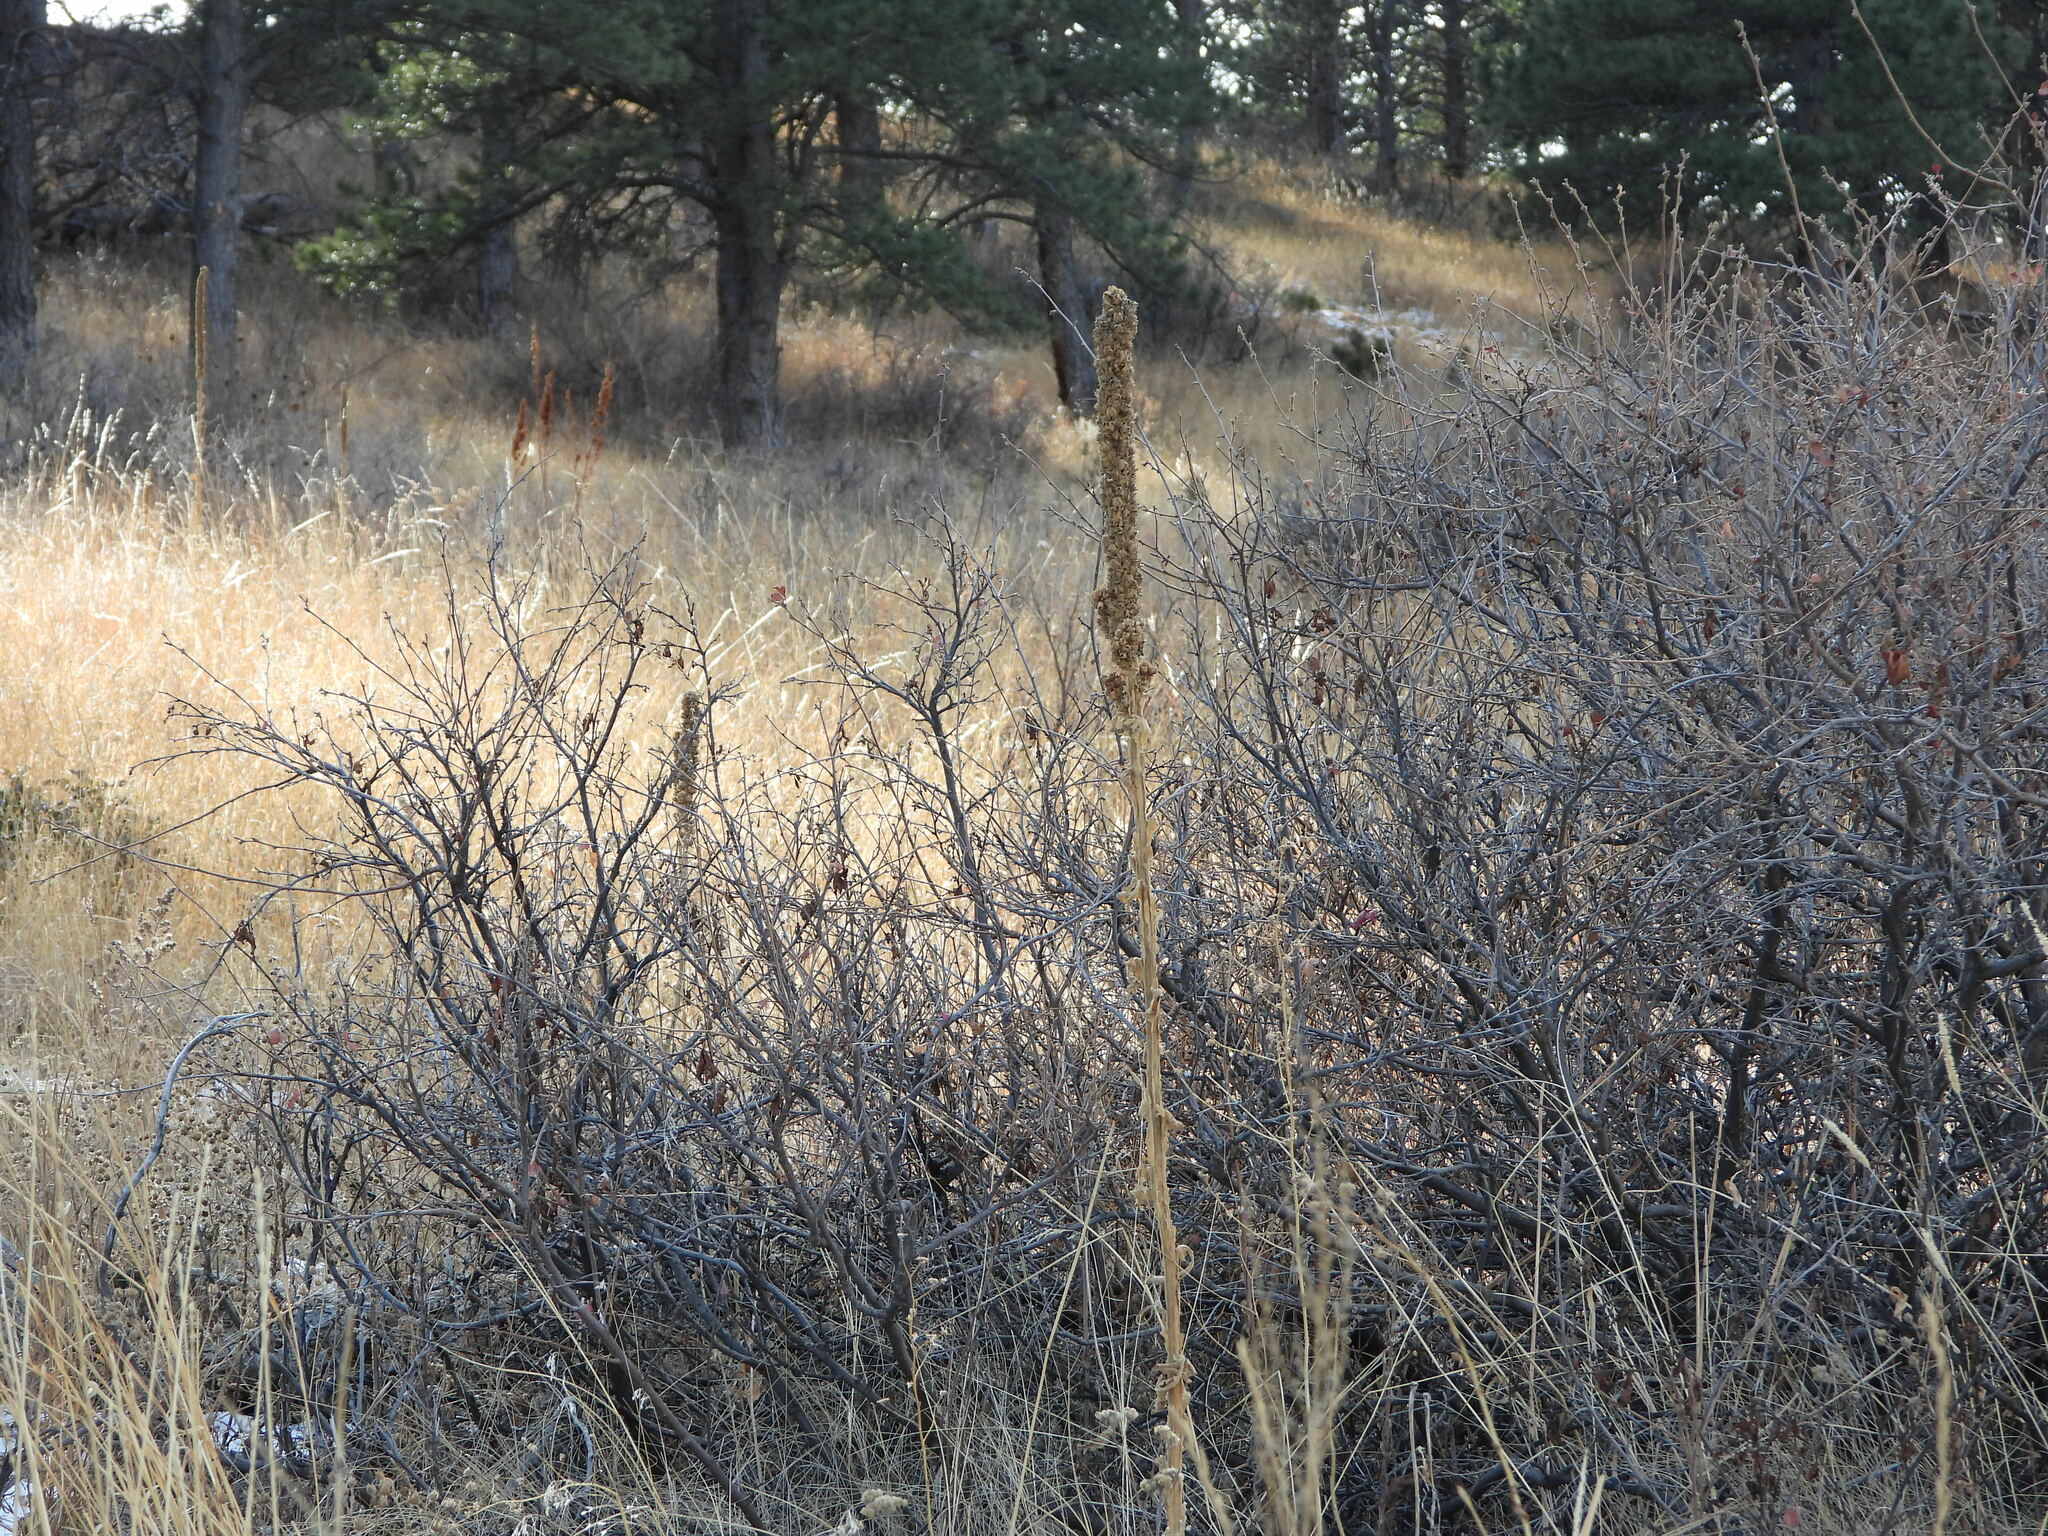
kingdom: Plantae
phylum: Tracheophyta
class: Magnoliopsida
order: Lamiales
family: Scrophulariaceae
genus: Verbascum
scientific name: Verbascum thapsus
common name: Common mullein
